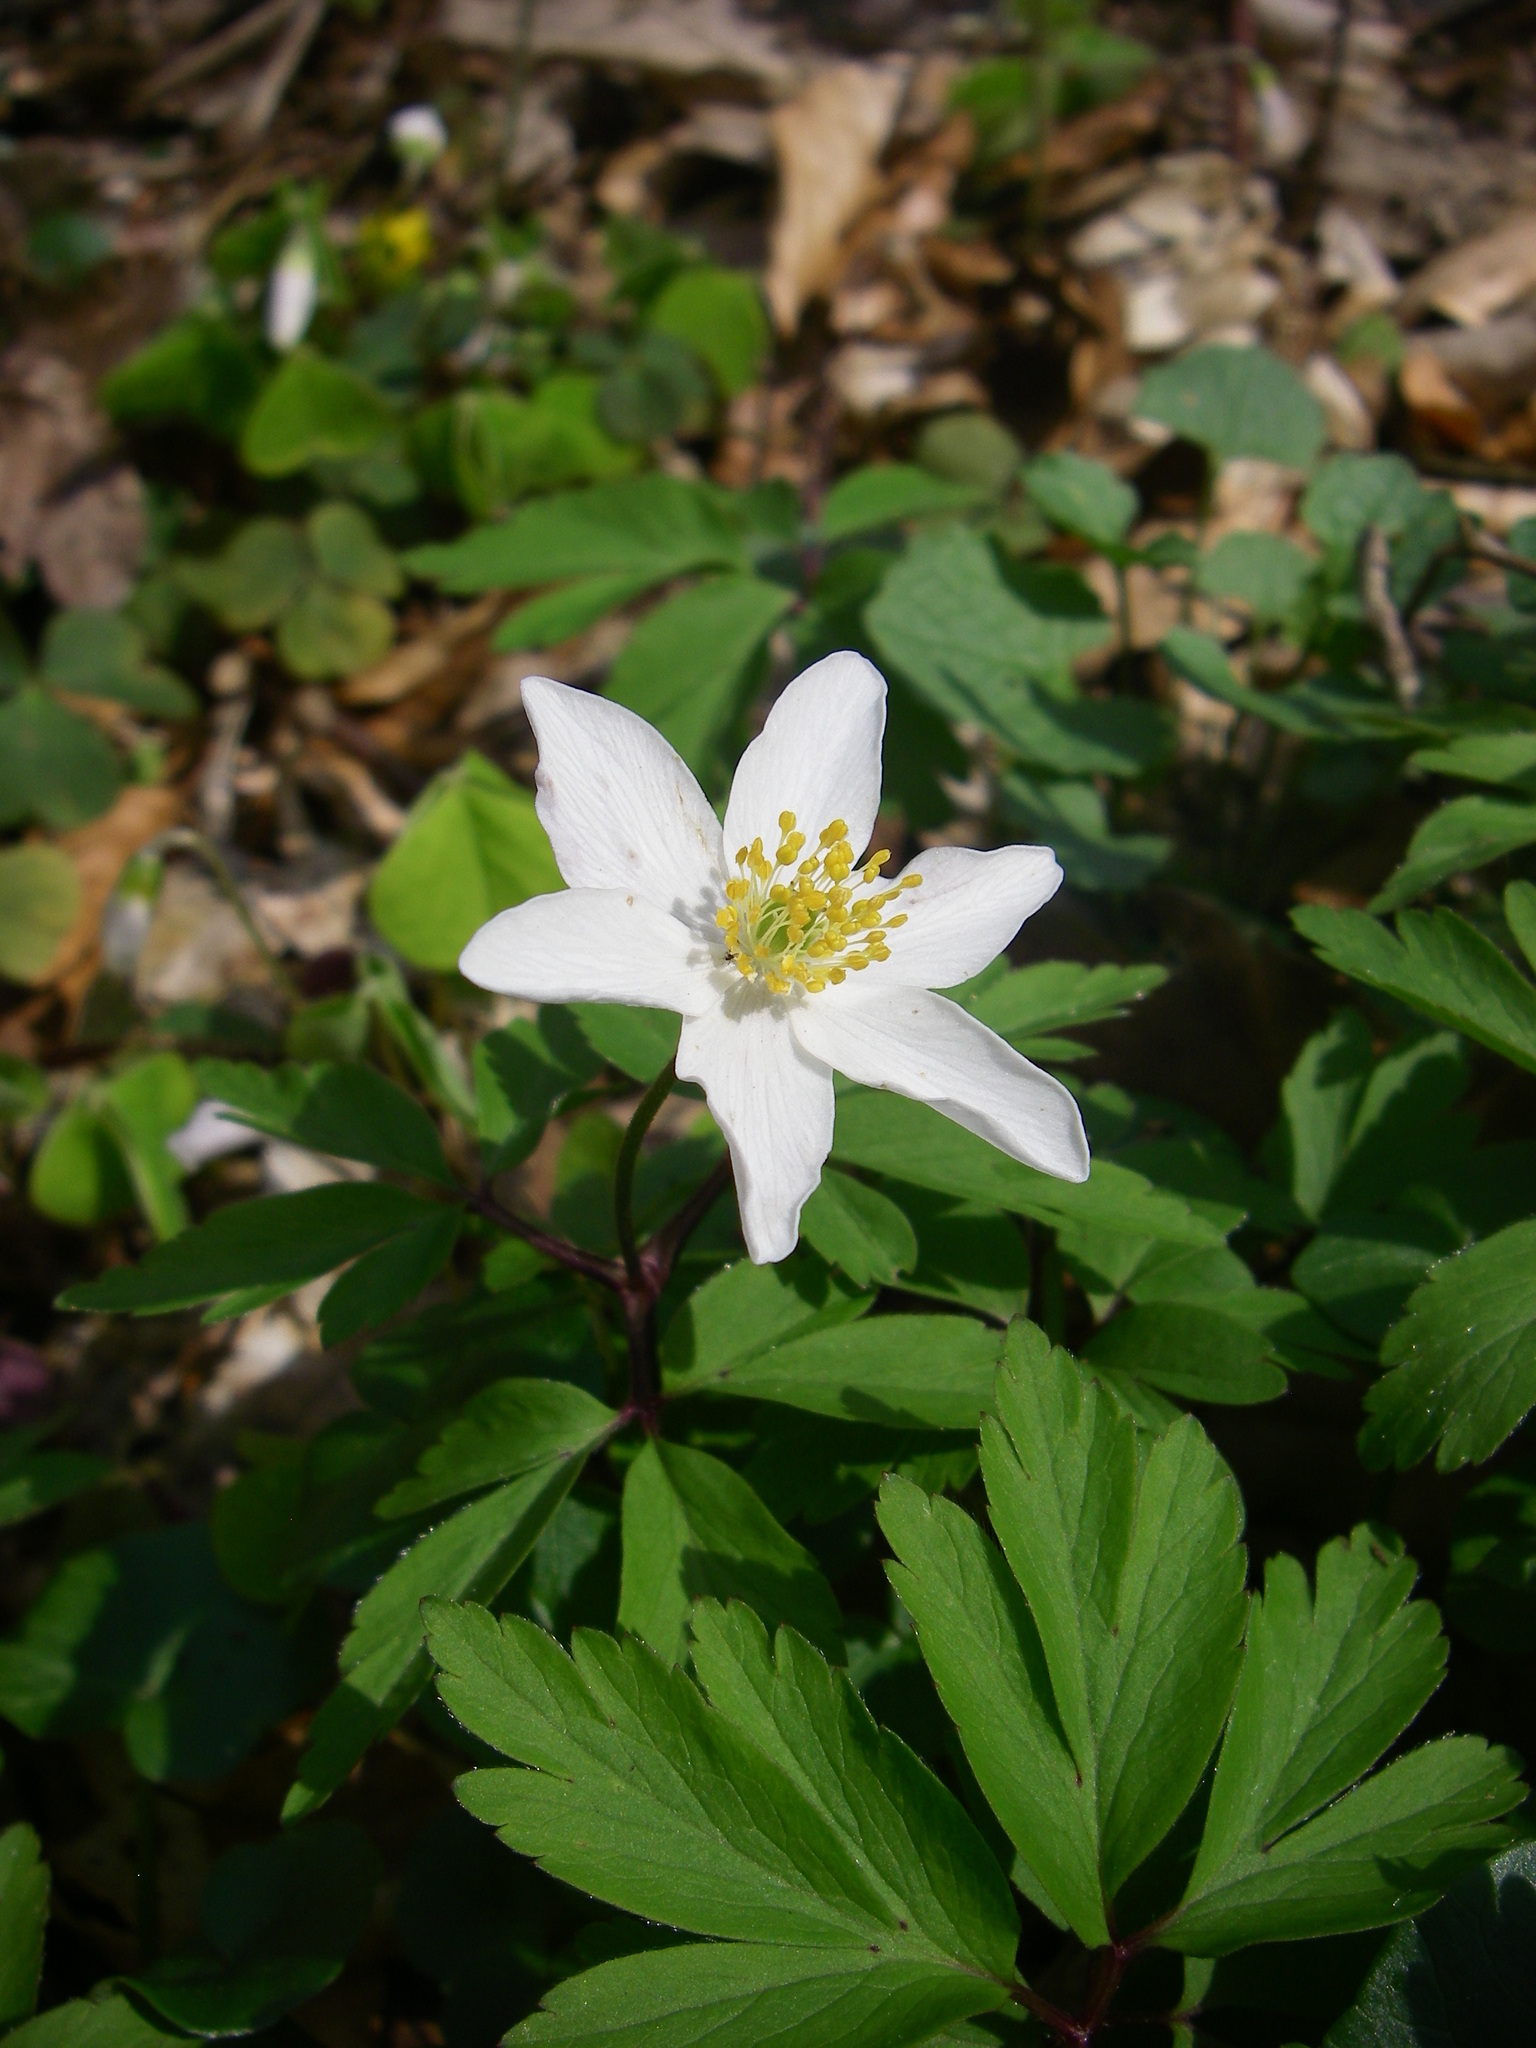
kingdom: Plantae
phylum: Tracheophyta
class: Magnoliopsida
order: Ranunculales
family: Ranunculaceae
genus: Anemone
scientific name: Anemone nemorosa
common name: Wood anemone
